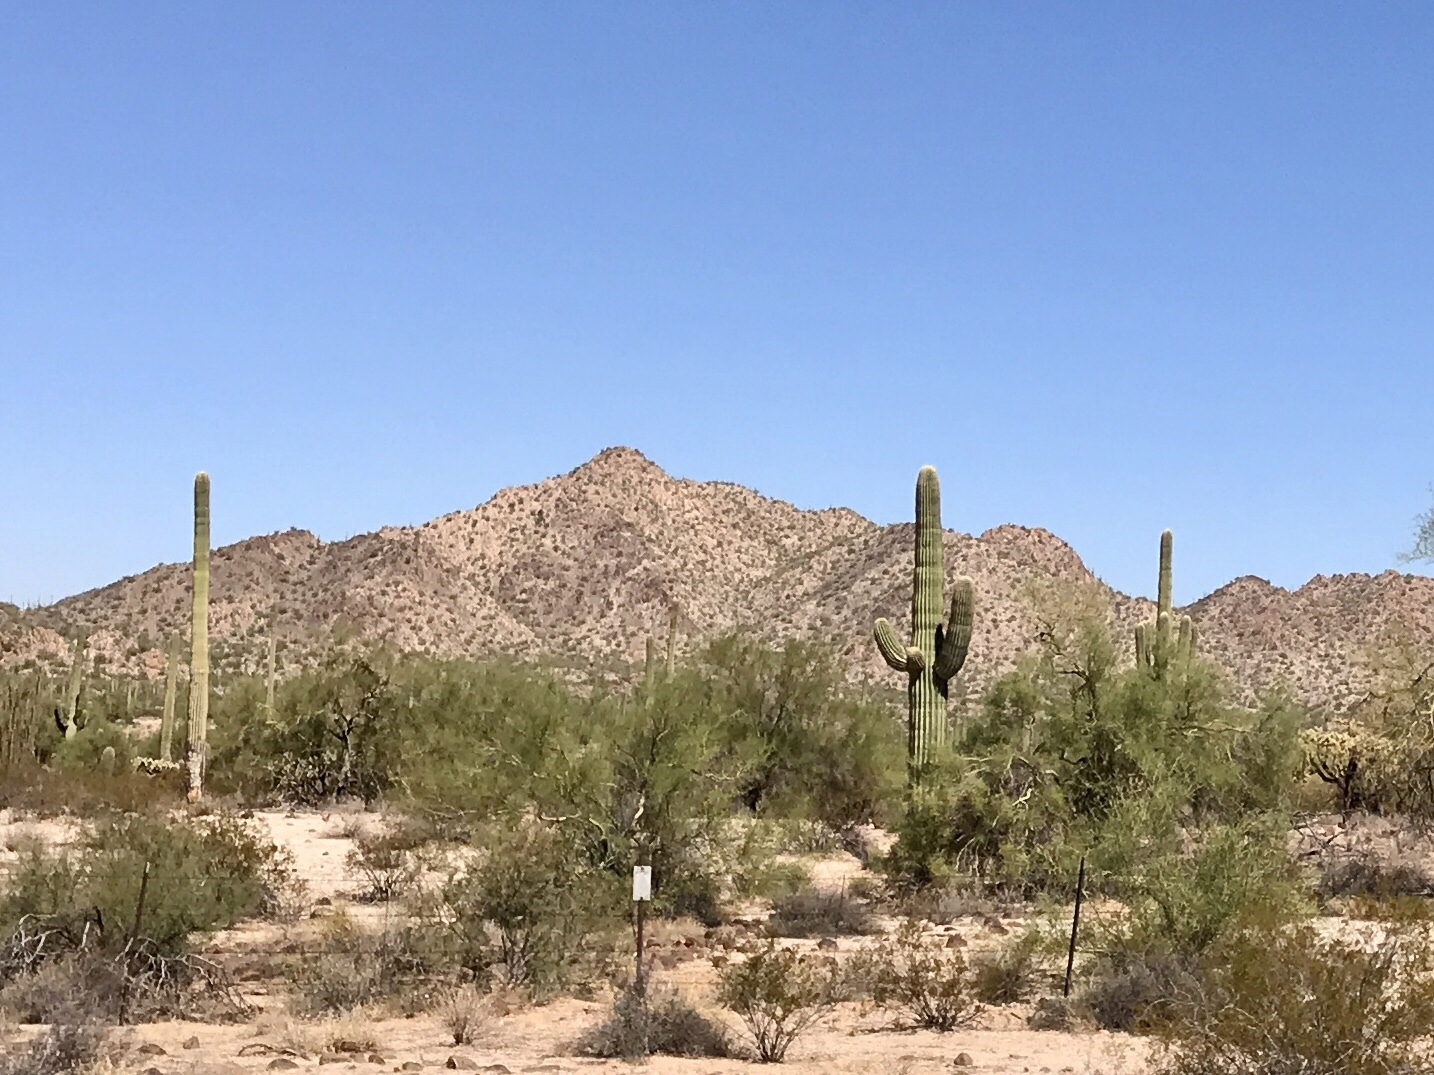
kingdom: Plantae
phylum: Tracheophyta
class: Magnoliopsida
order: Caryophyllales
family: Cactaceae
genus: Carnegiea
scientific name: Carnegiea gigantea
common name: Saguaro
